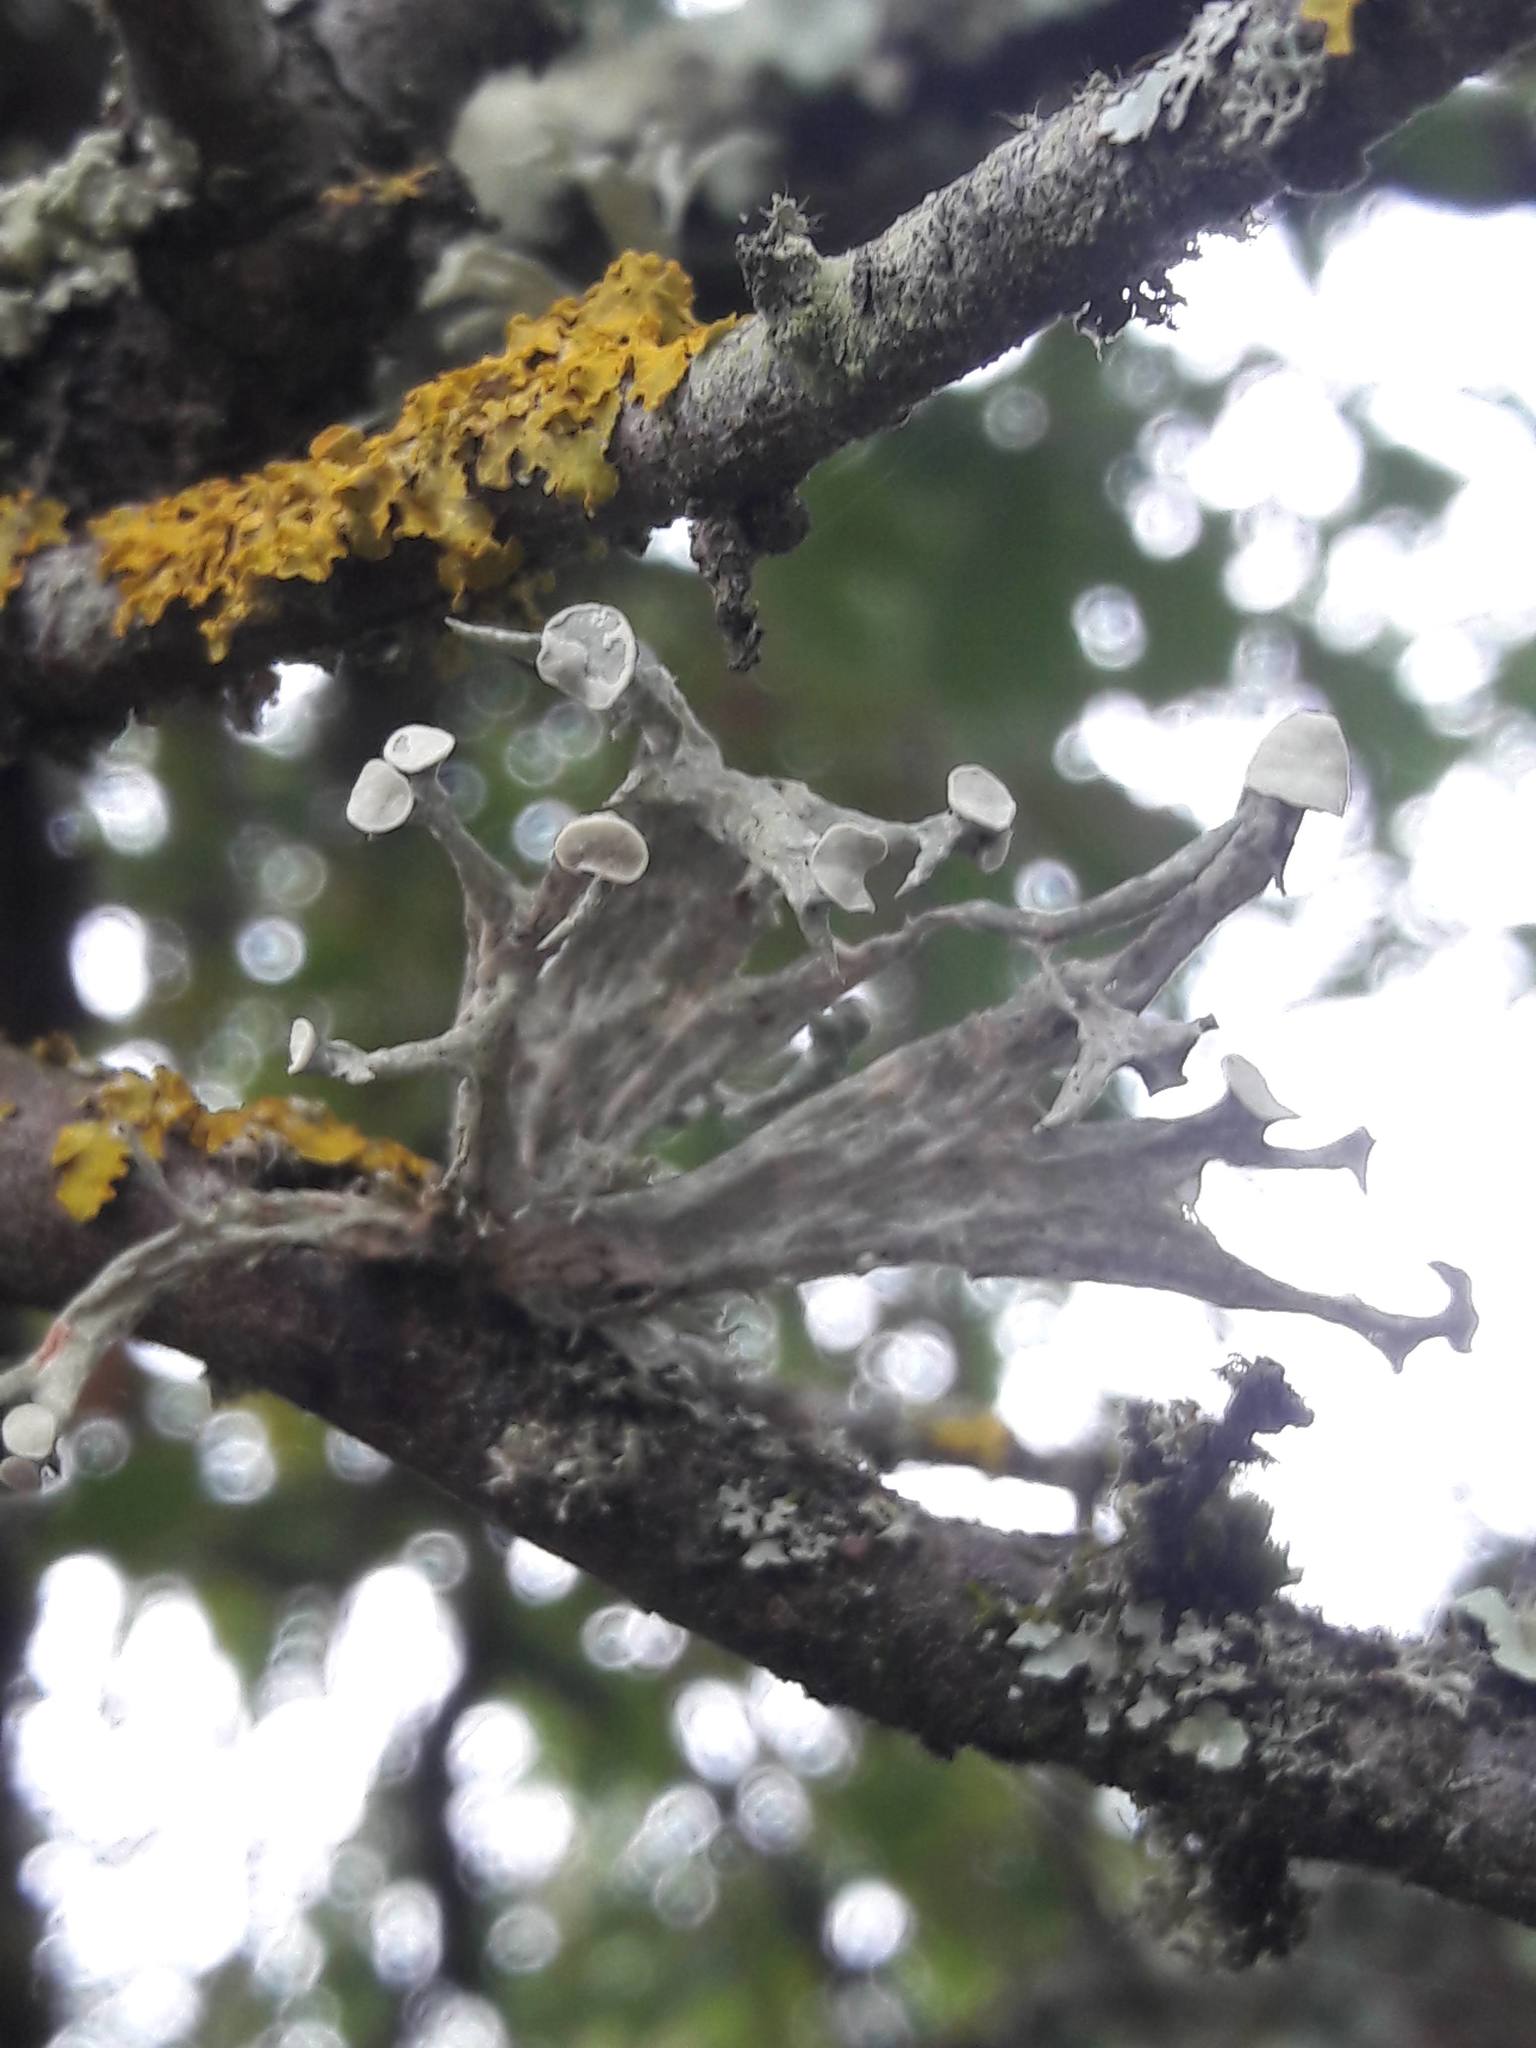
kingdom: Fungi
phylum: Ascomycota
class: Lecanoromycetes
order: Lecanorales
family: Ramalinaceae
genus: Ramalina
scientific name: Ramalina fastigiata
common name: Dotted ribbon lichen
